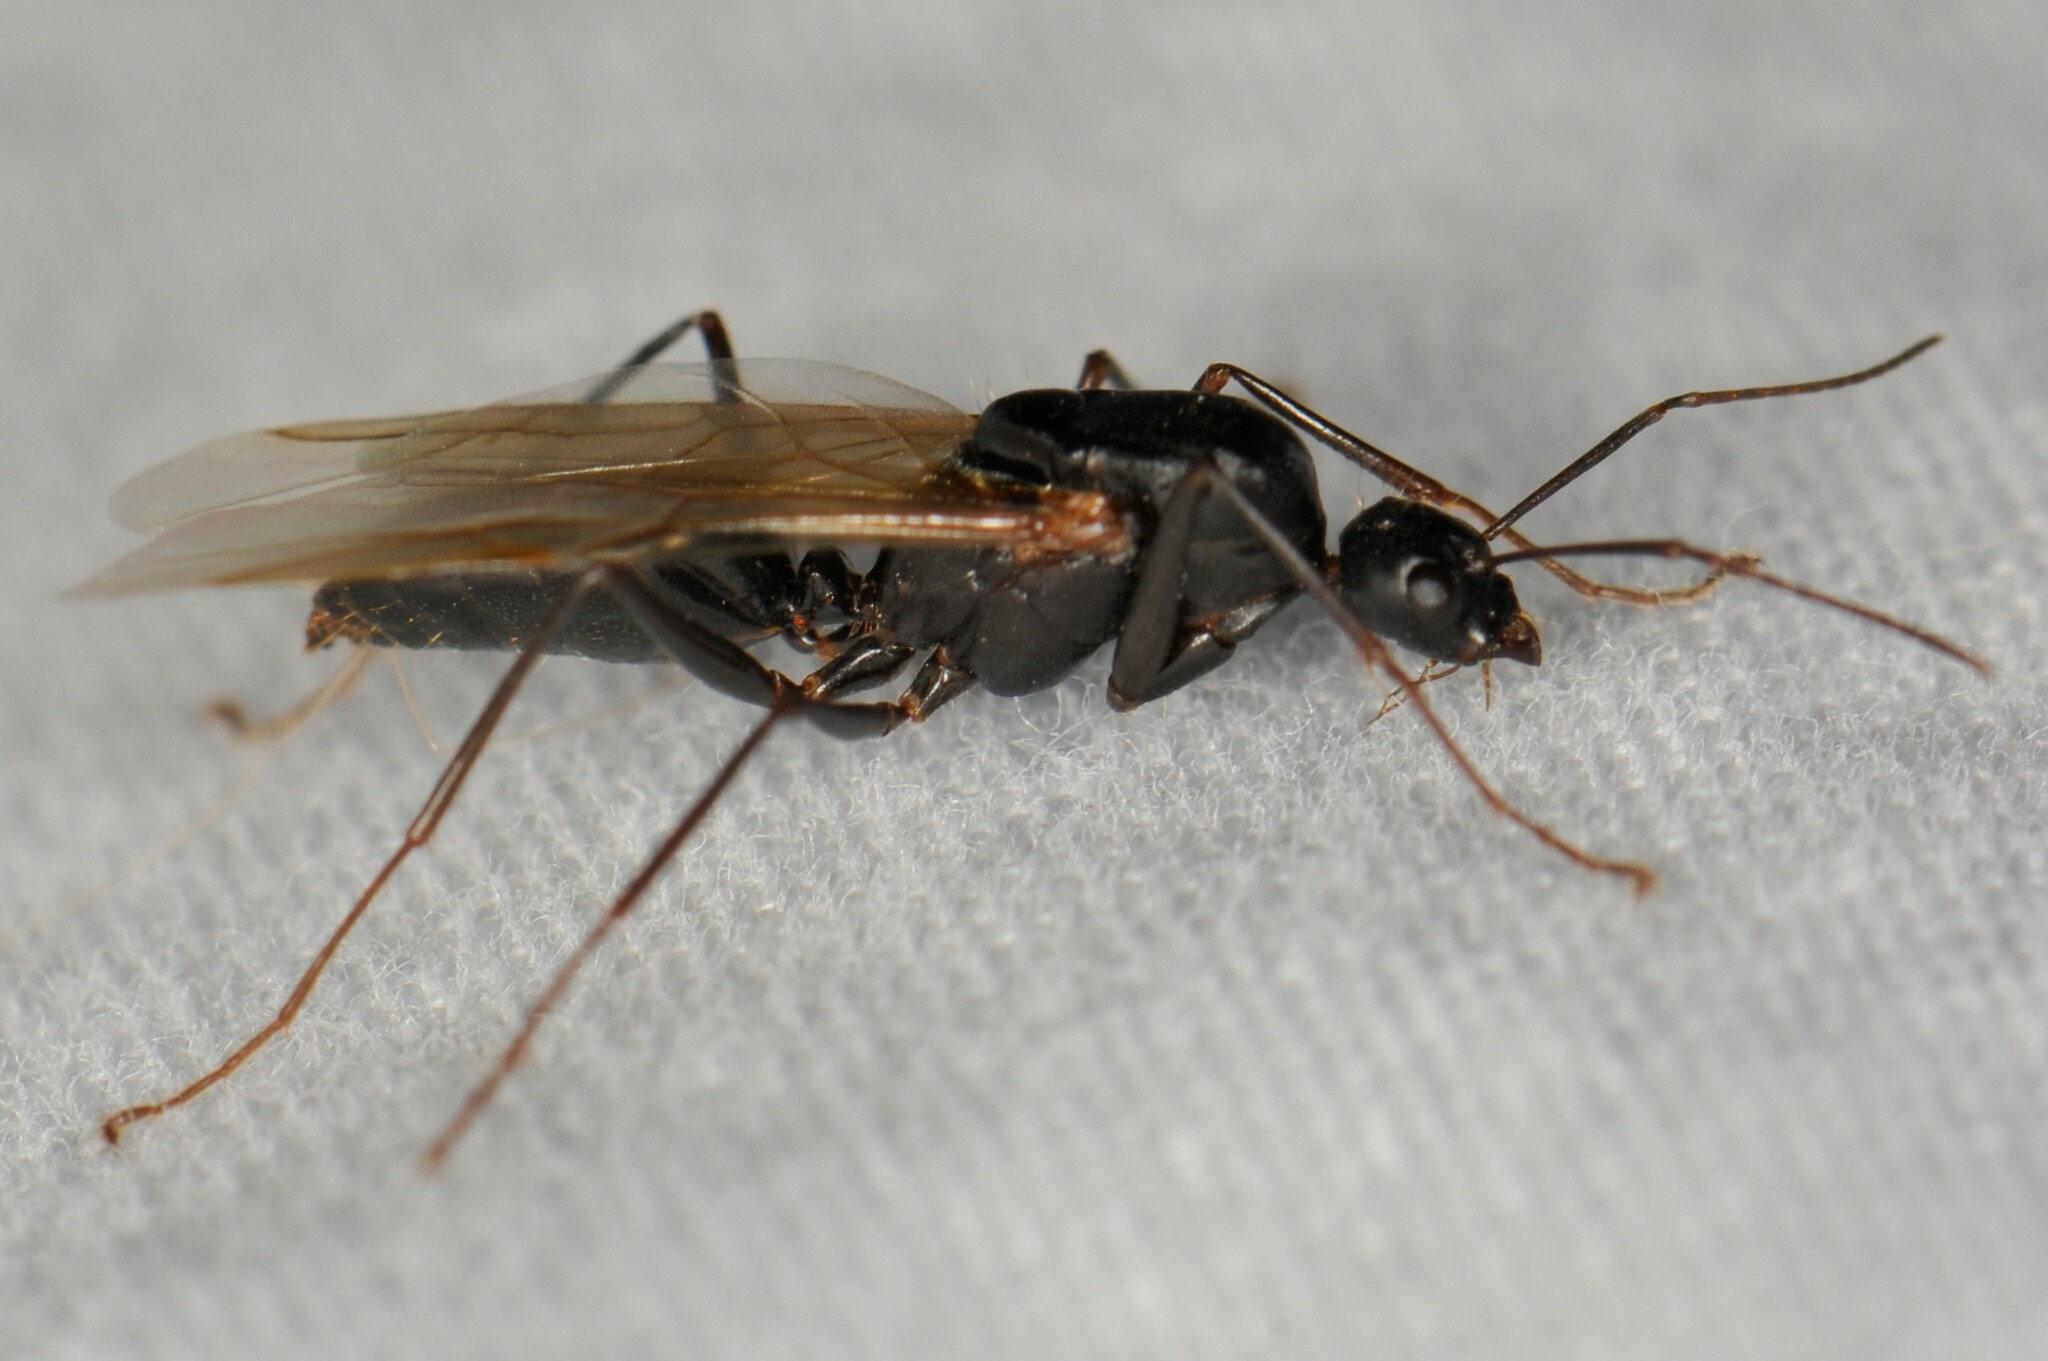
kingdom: Animalia
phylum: Arthropoda
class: Insecta
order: Hymenoptera
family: Formicidae
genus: Camponotus
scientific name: Camponotus
